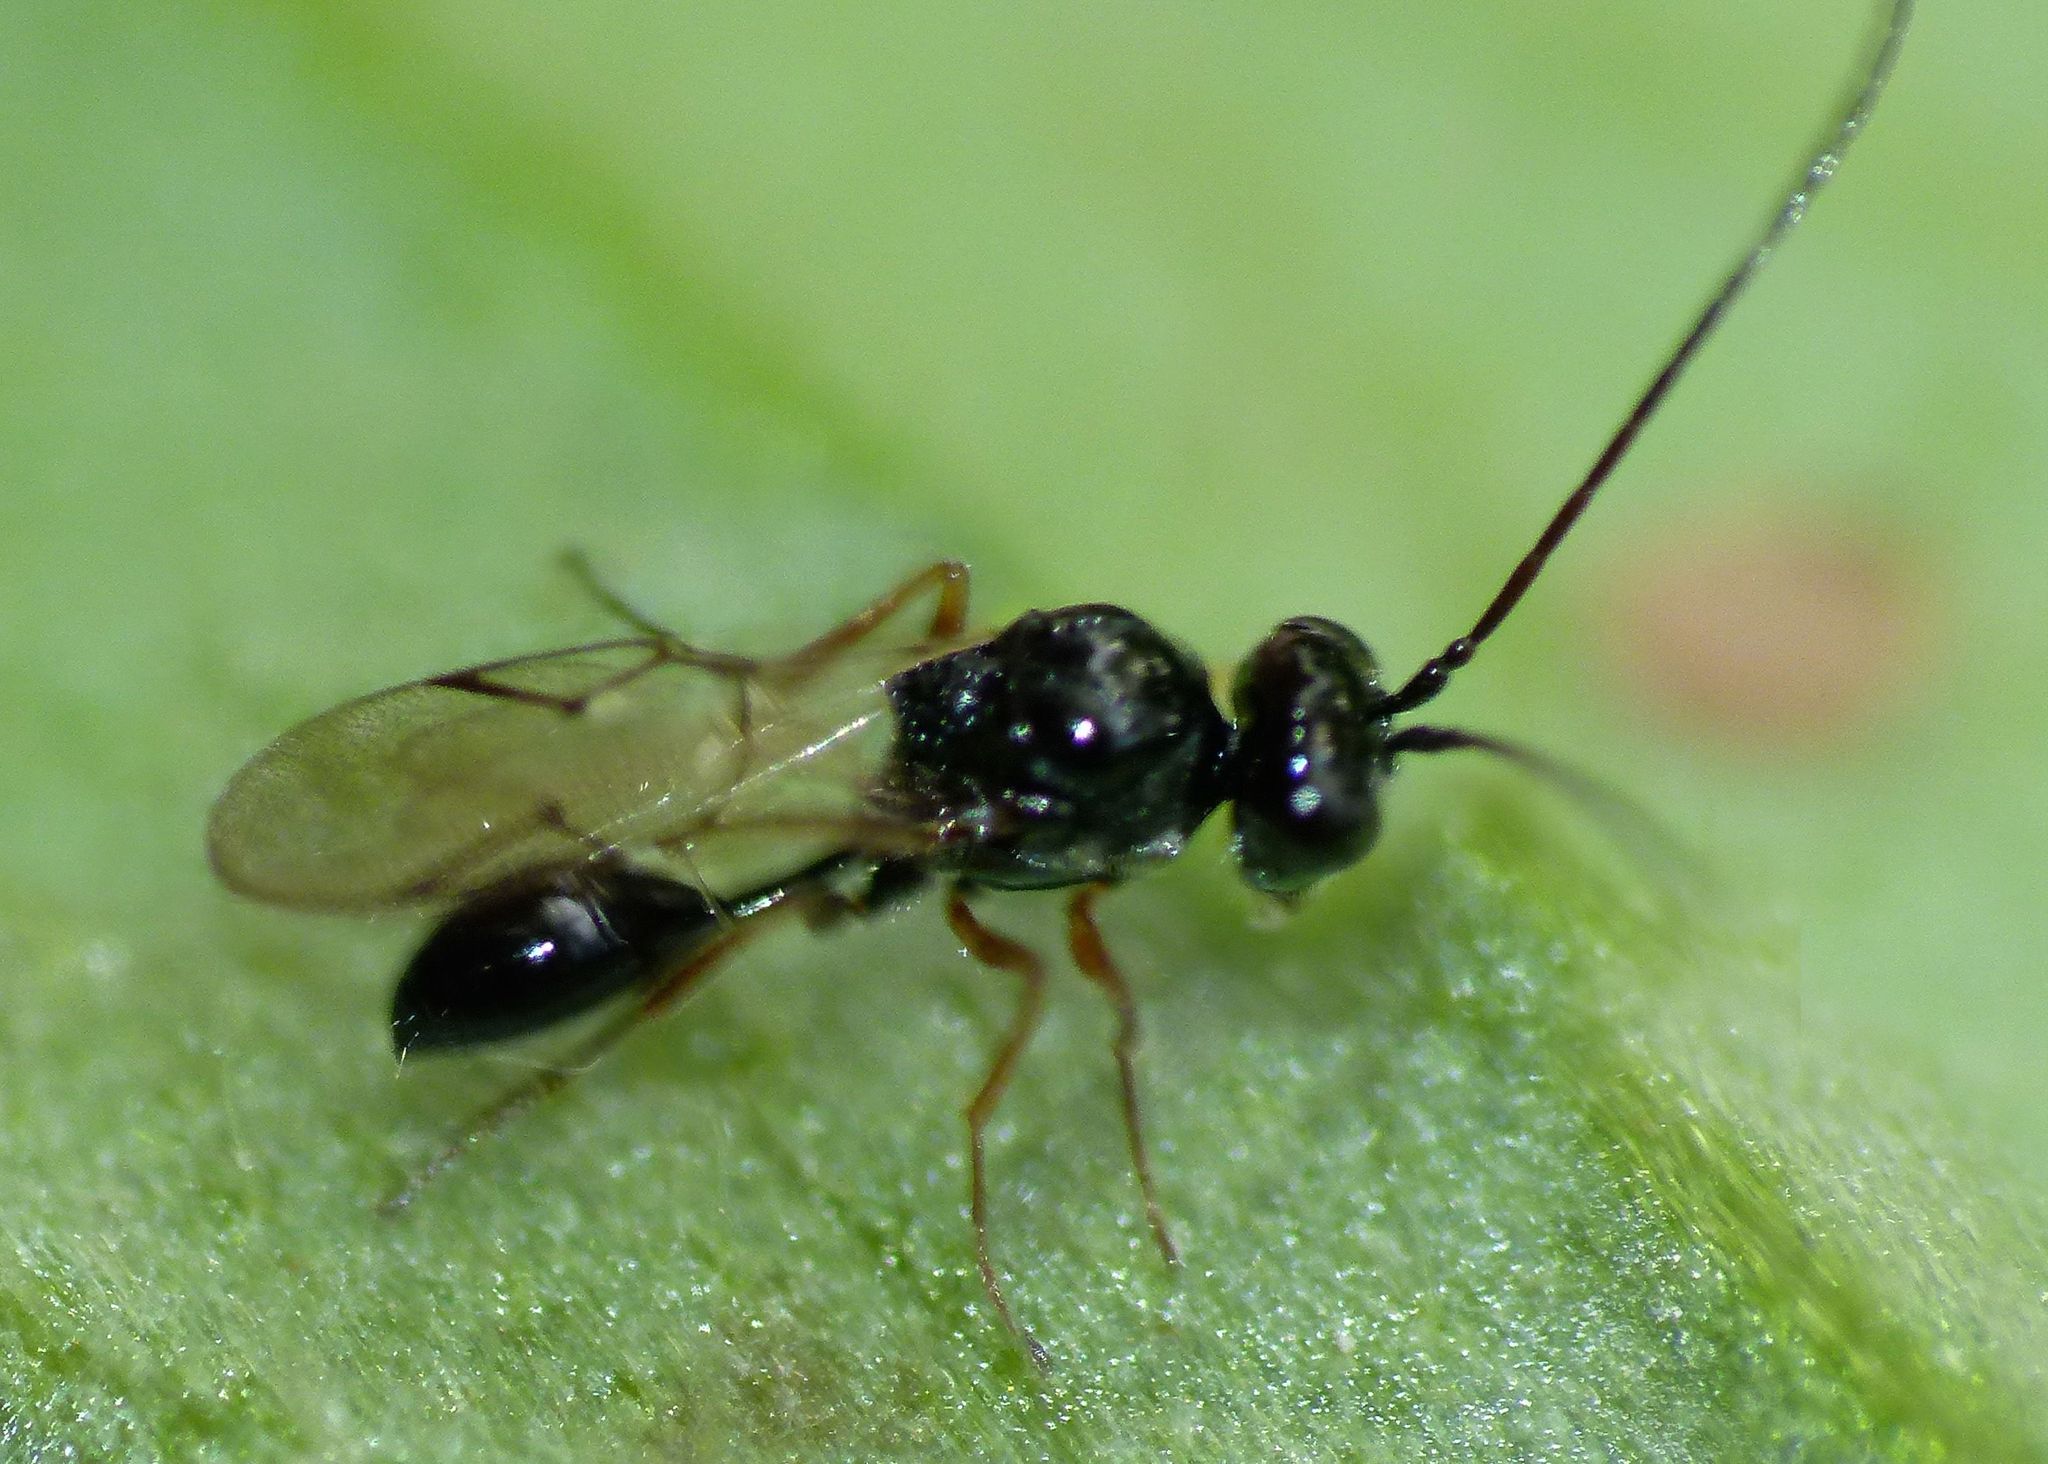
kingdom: Animalia
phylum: Arthropoda
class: Insecta
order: Hymenoptera
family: Figitidae
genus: Anacharis
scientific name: Anacharis zealandica
